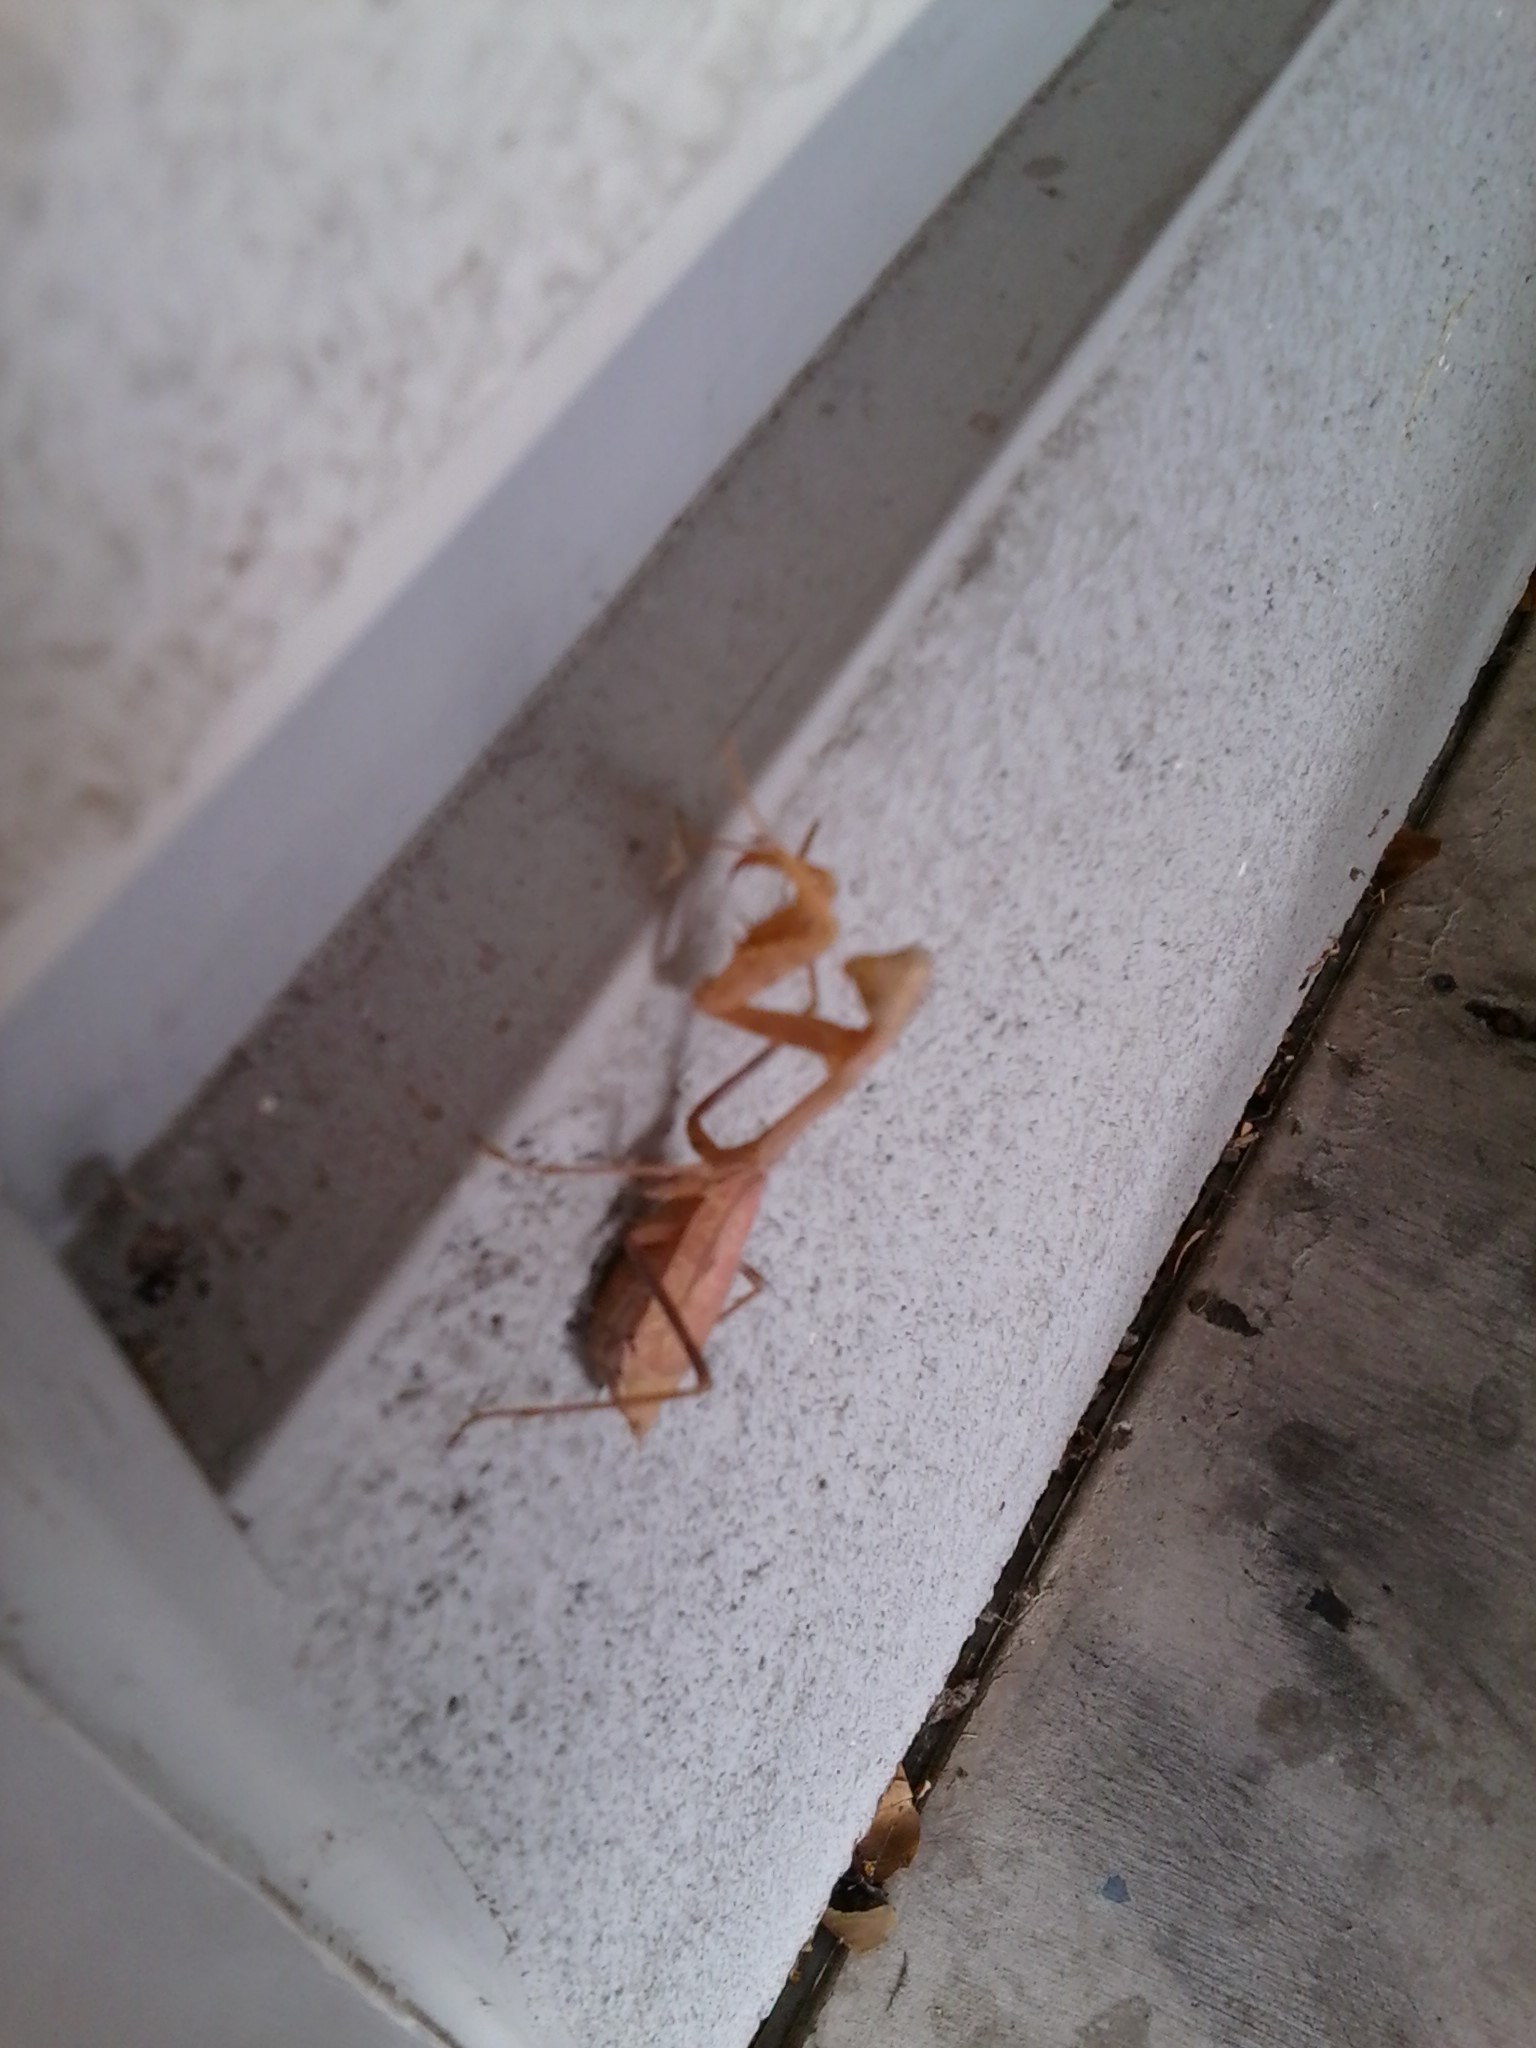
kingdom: Animalia
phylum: Arthropoda
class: Insecta
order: Mantodea
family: Mantidae
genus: Stagmomantis
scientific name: Stagmomantis californica
